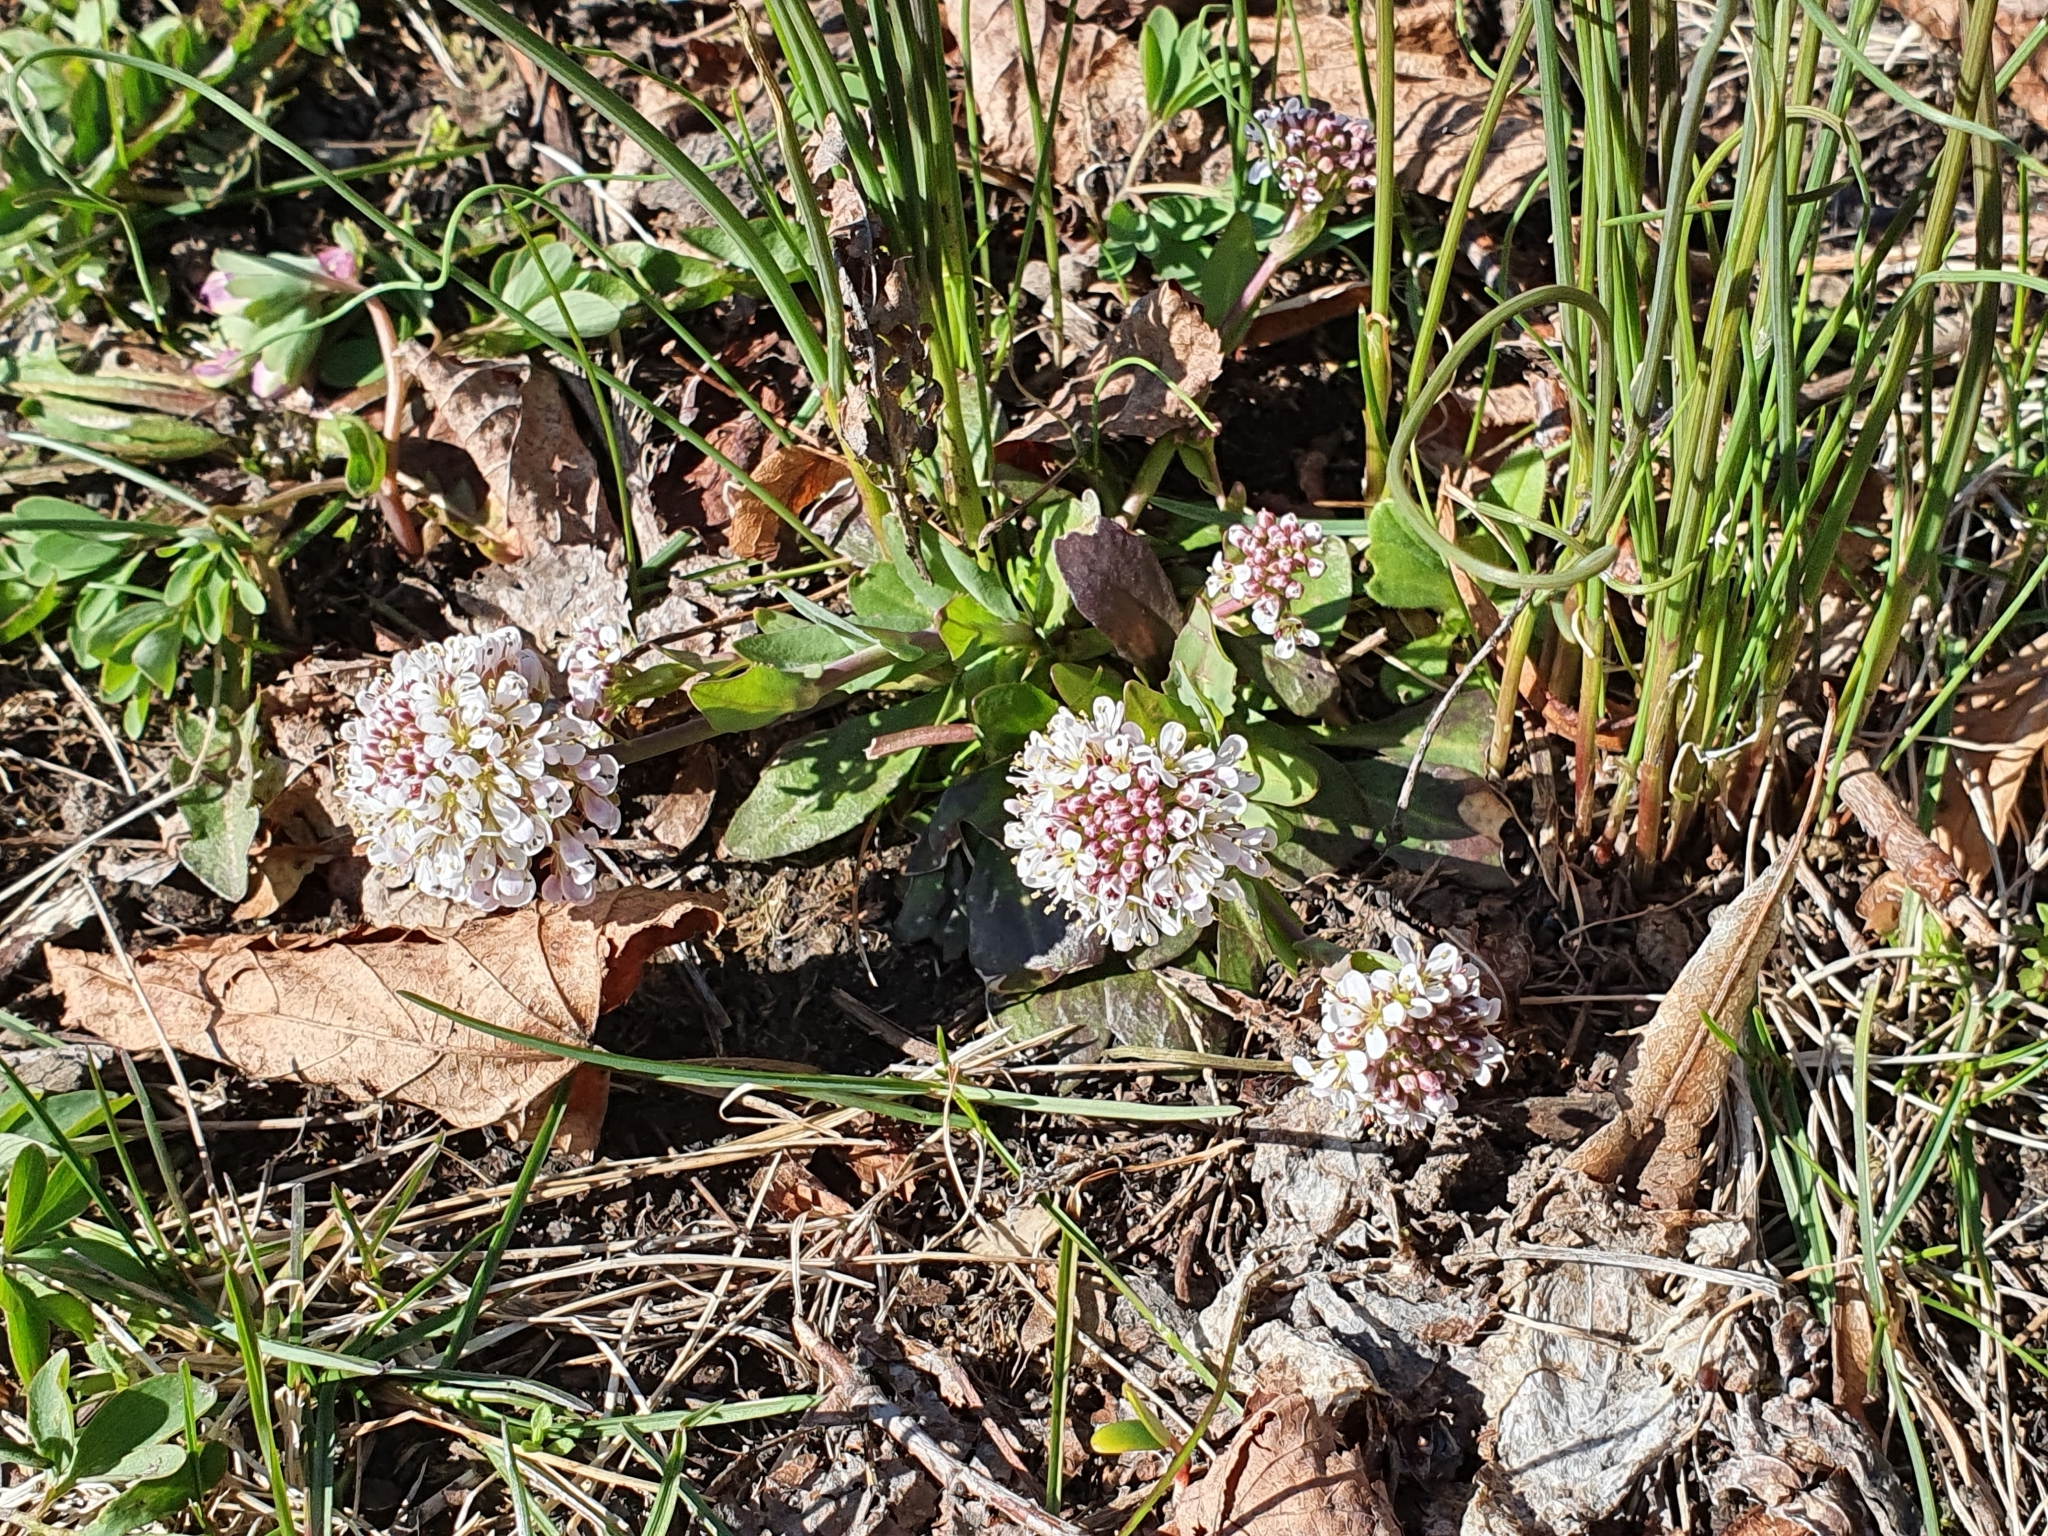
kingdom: Plantae
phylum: Tracheophyta
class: Magnoliopsida
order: Brassicales
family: Brassicaceae
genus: Noccaea
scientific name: Noccaea caerulescens
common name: Alpine pennycress
